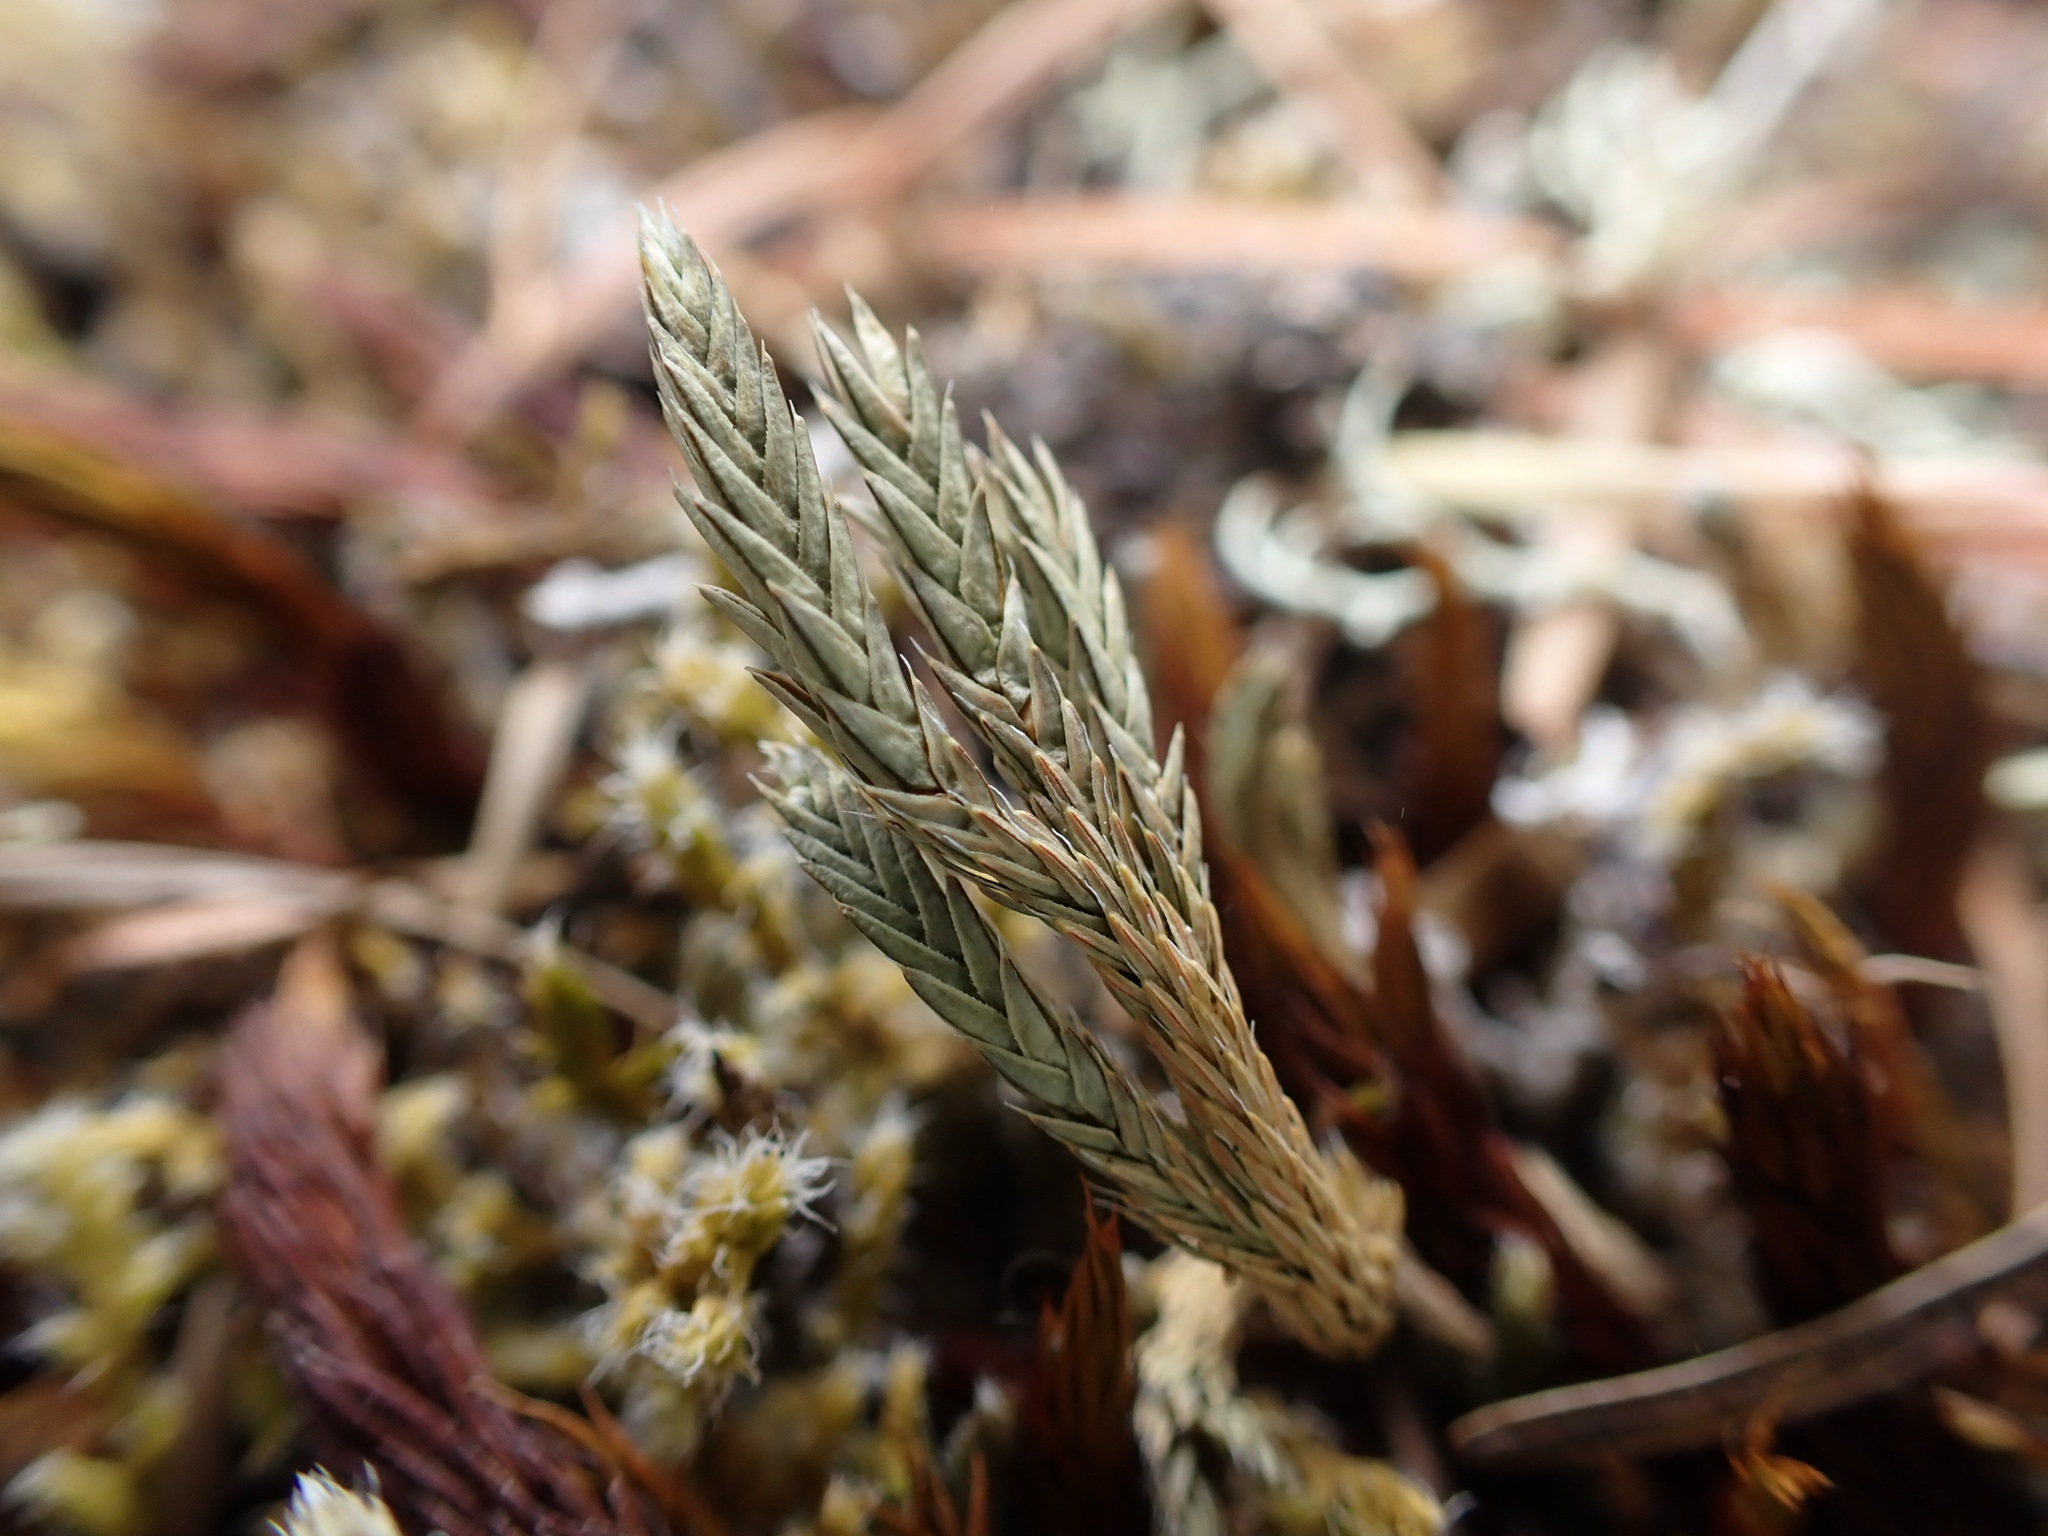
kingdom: Plantae
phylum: Tracheophyta
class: Lycopodiopsida
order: Selaginellales
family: Selaginellaceae
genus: Selaginella
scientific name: Selaginella wallacei
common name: Wallace's selaginella
